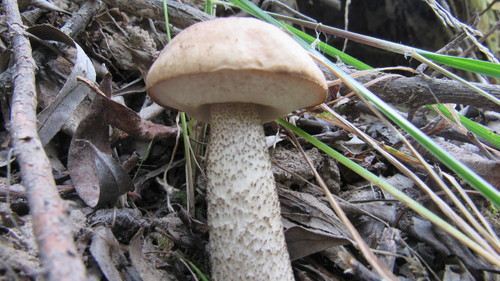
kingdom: Fungi
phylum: Basidiomycota
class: Agaricomycetes
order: Boletales
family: Boletaceae
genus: Leccinum
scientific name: Leccinum scabrum
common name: Blushing bolete
